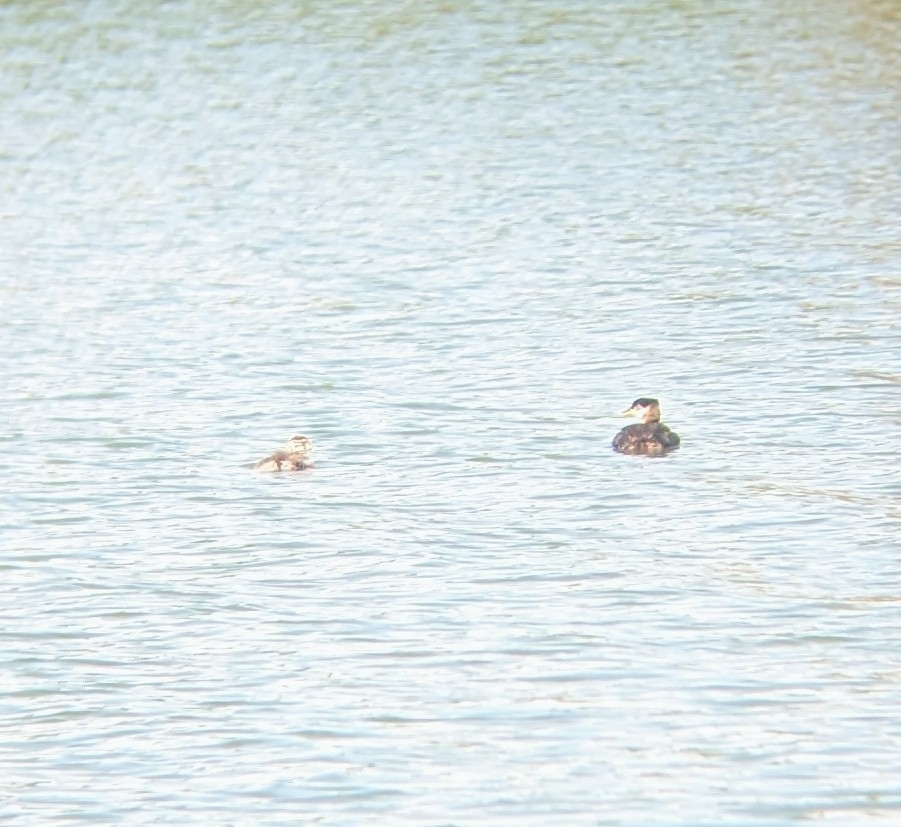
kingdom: Animalia
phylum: Chordata
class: Aves
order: Podicipediformes
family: Podicipedidae
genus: Podiceps
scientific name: Podiceps grisegena
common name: Red-necked grebe
